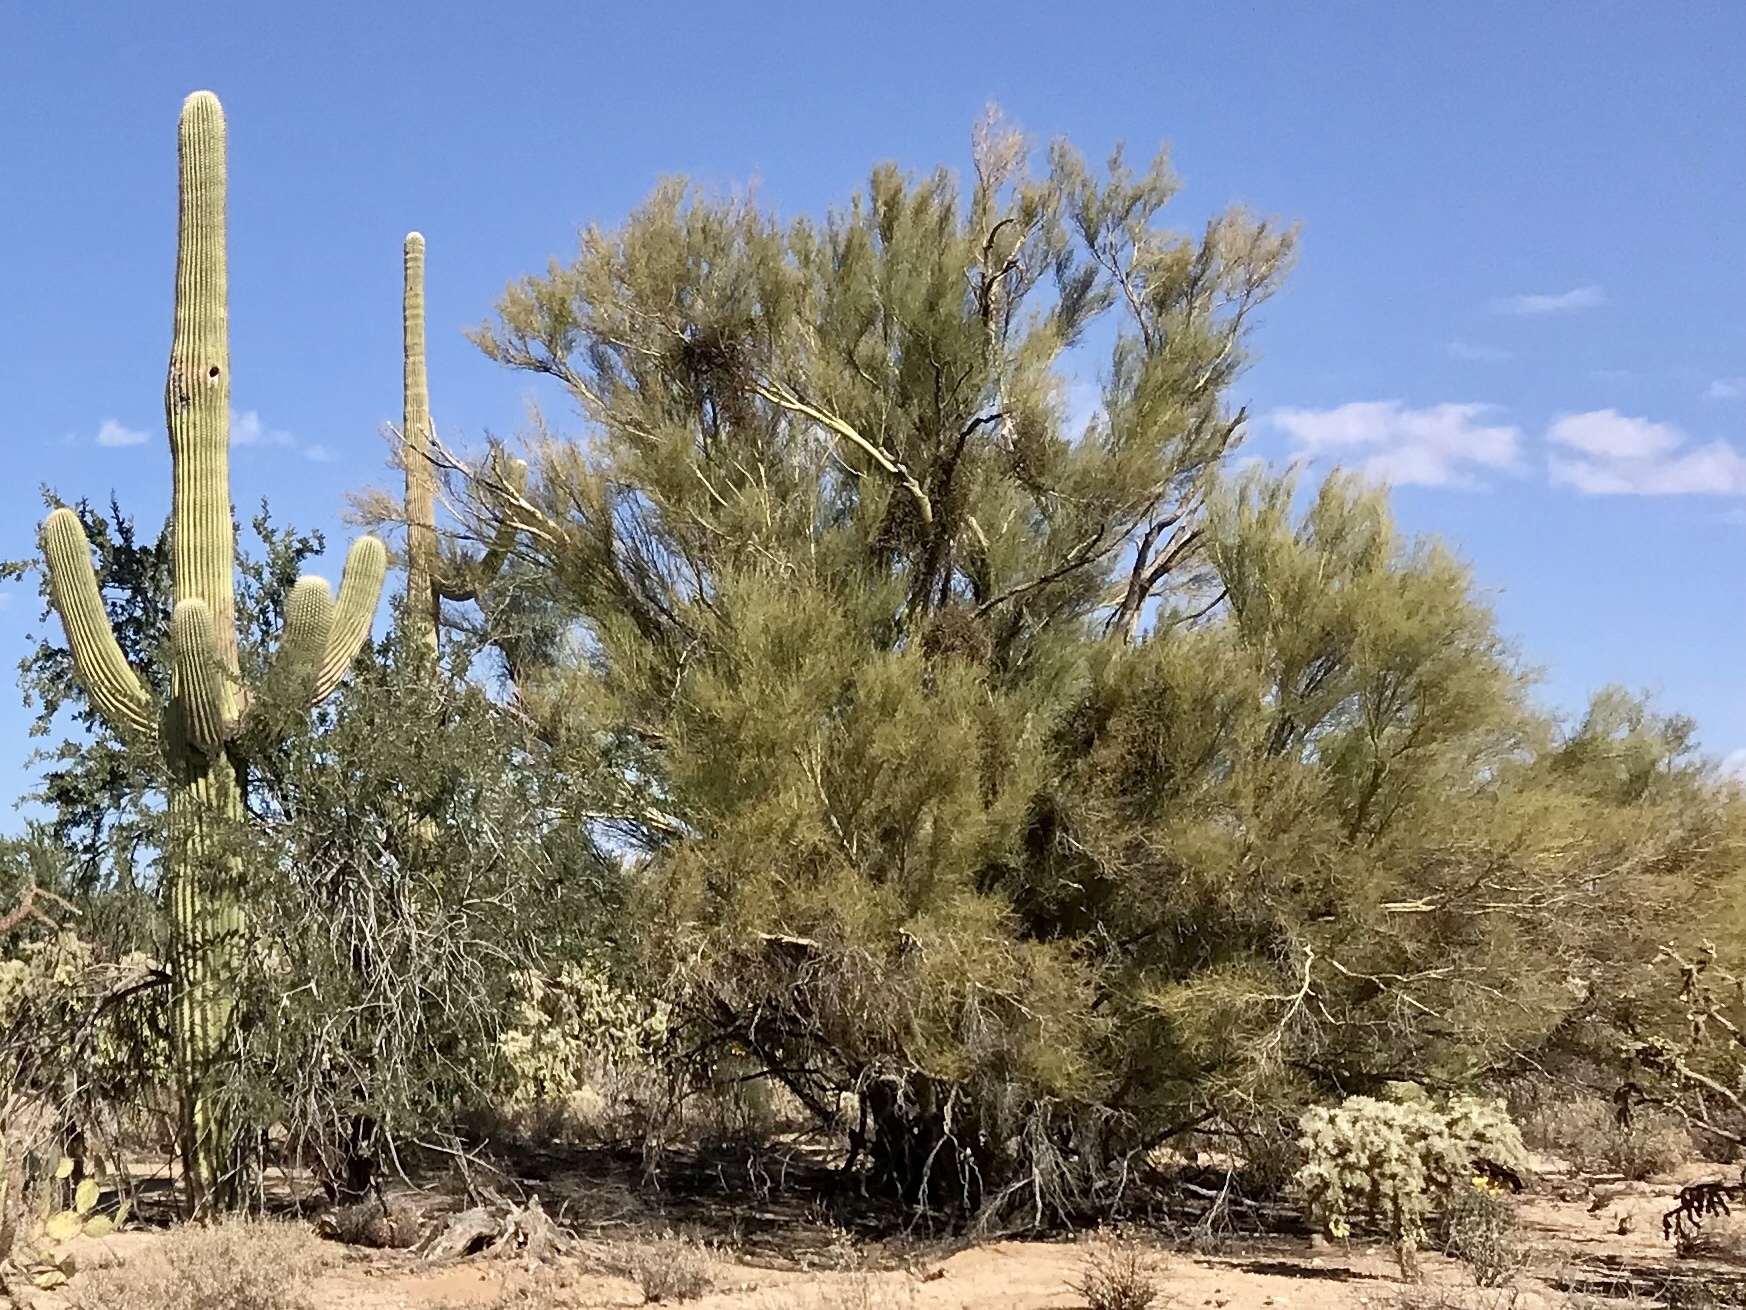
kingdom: Plantae
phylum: Tracheophyta
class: Magnoliopsida
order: Fabales
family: Fabaceae
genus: Parkinsonia
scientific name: Parkinsonia microphylla
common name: Yellow paloverde
